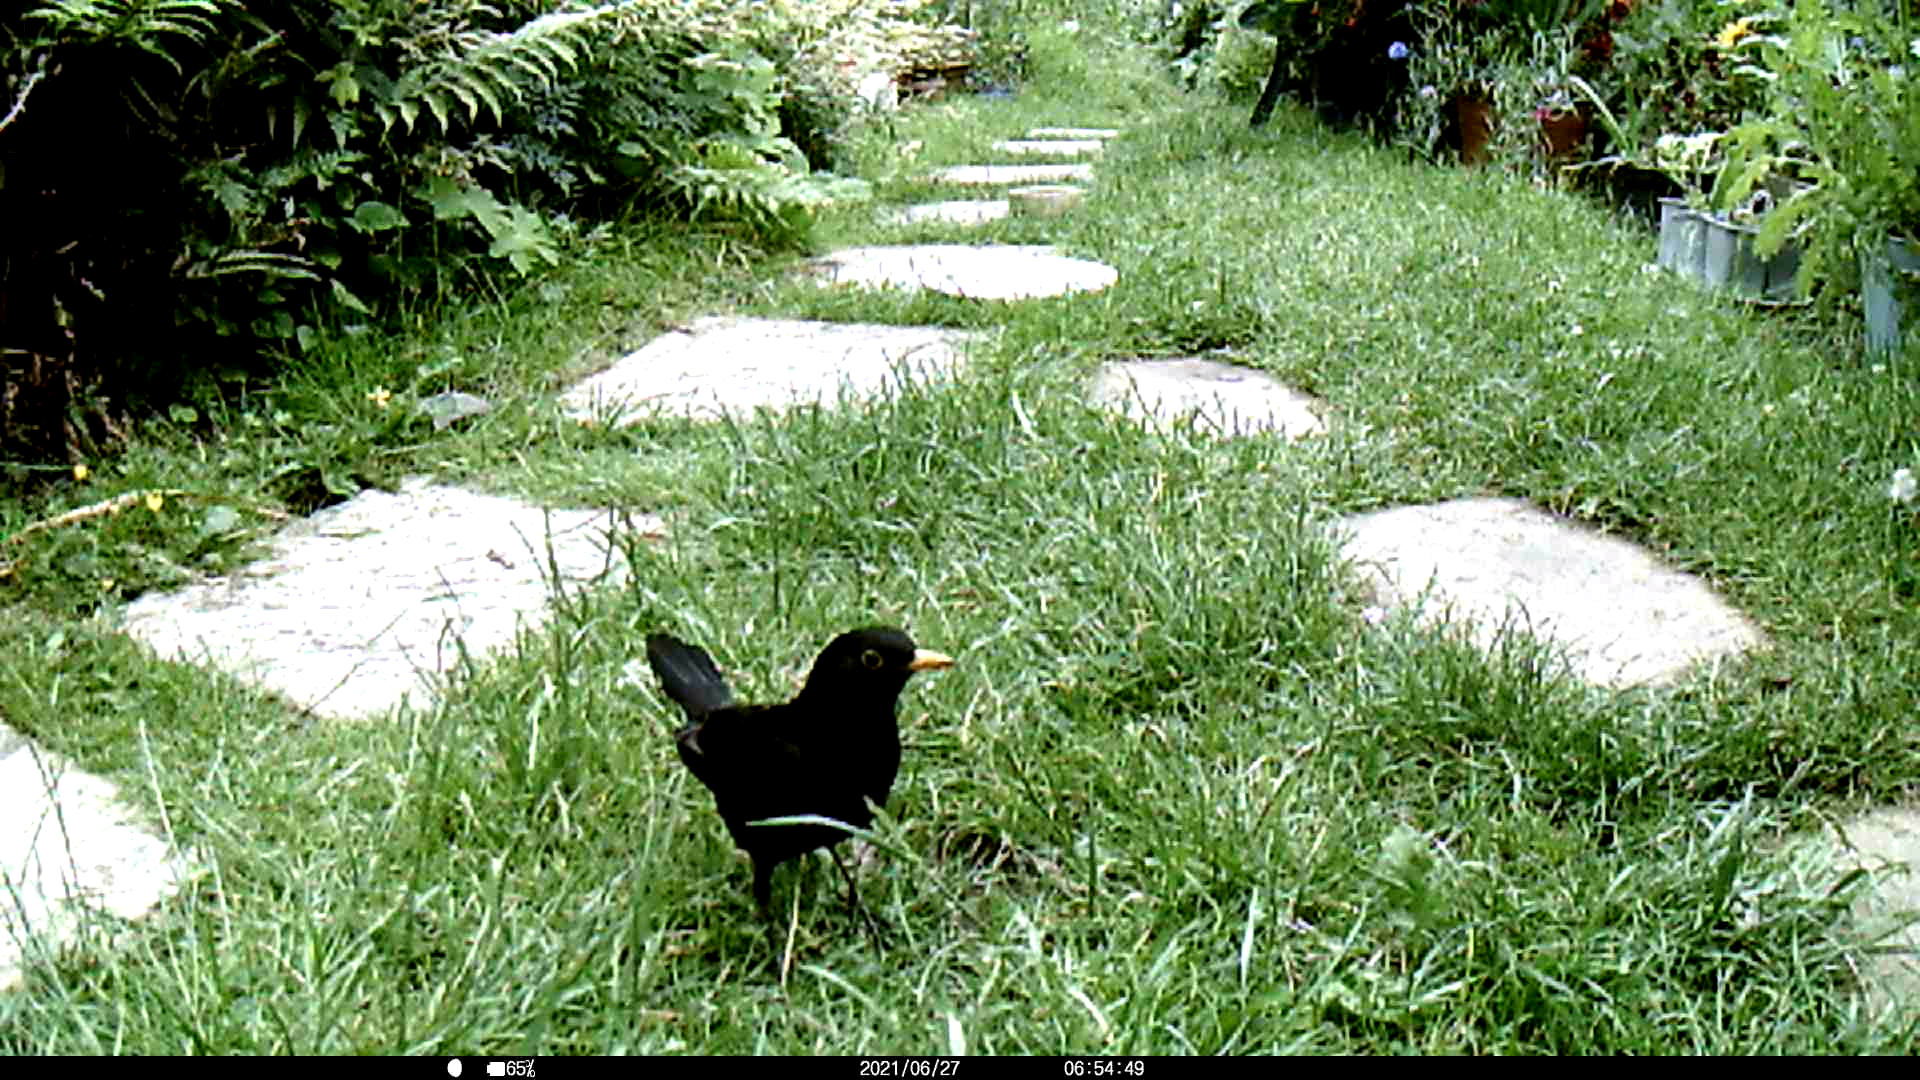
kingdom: Animalia
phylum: Chordata
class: Aves
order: Passeriformes
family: Turdidae
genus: Turdus
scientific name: Turdus merula
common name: Common blackbird
